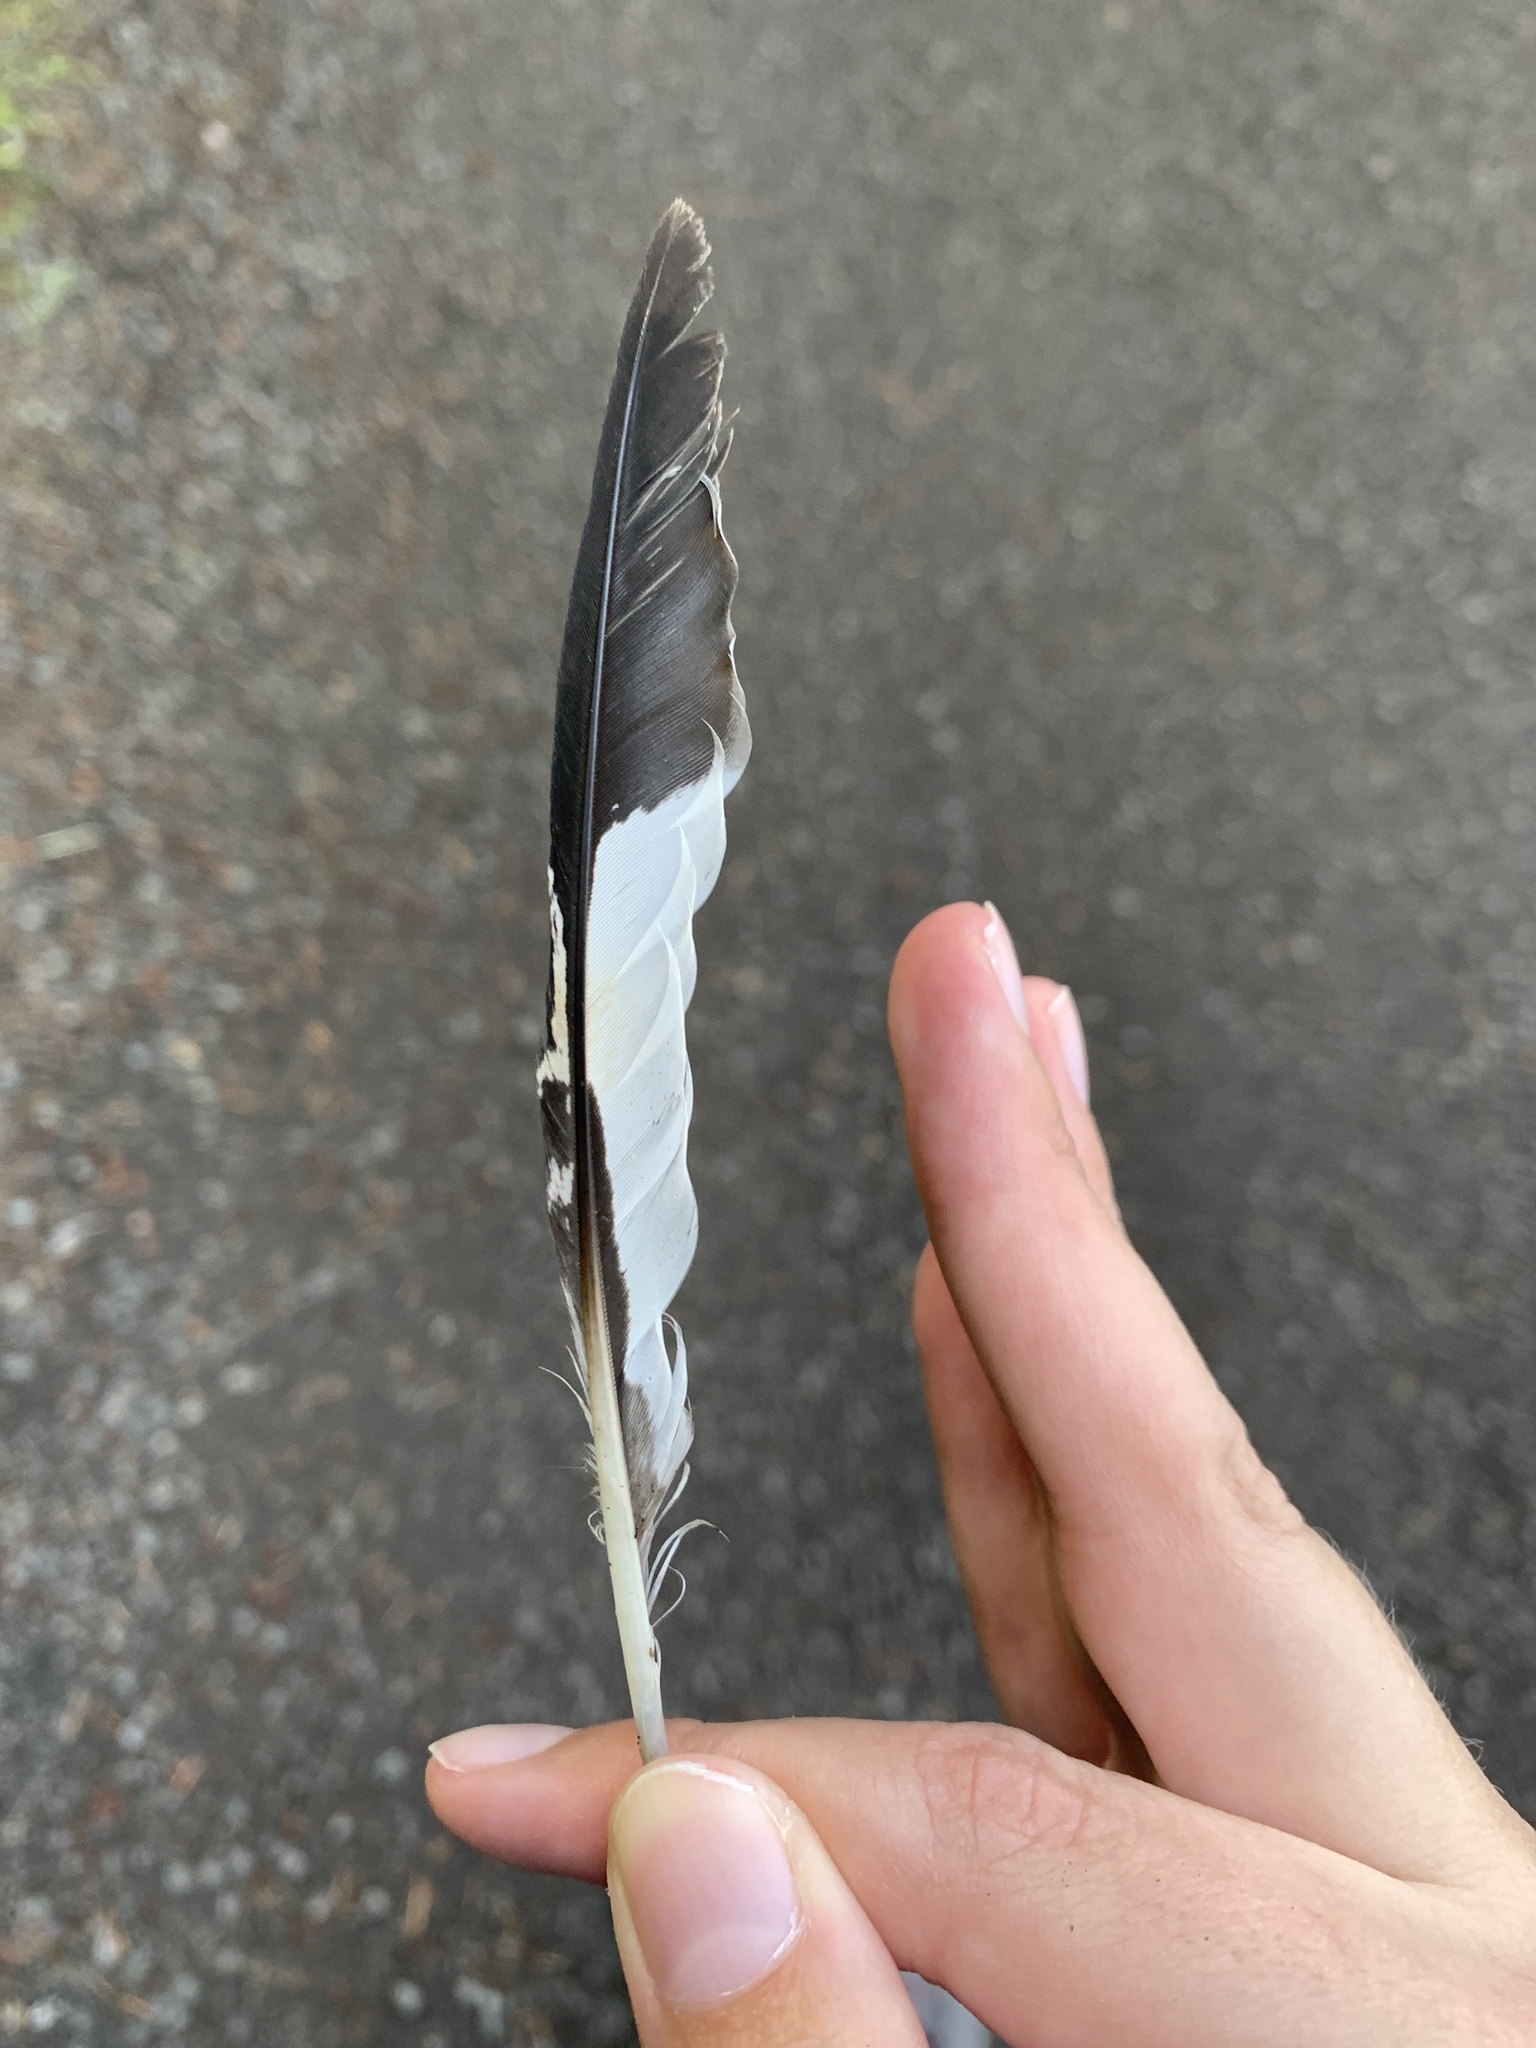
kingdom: Animalia
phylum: Chordata
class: Aves
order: Coraciiformes
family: Alcedinidae
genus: Megaceryle
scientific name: Megaceryle alcyon
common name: Belted kingfisher
